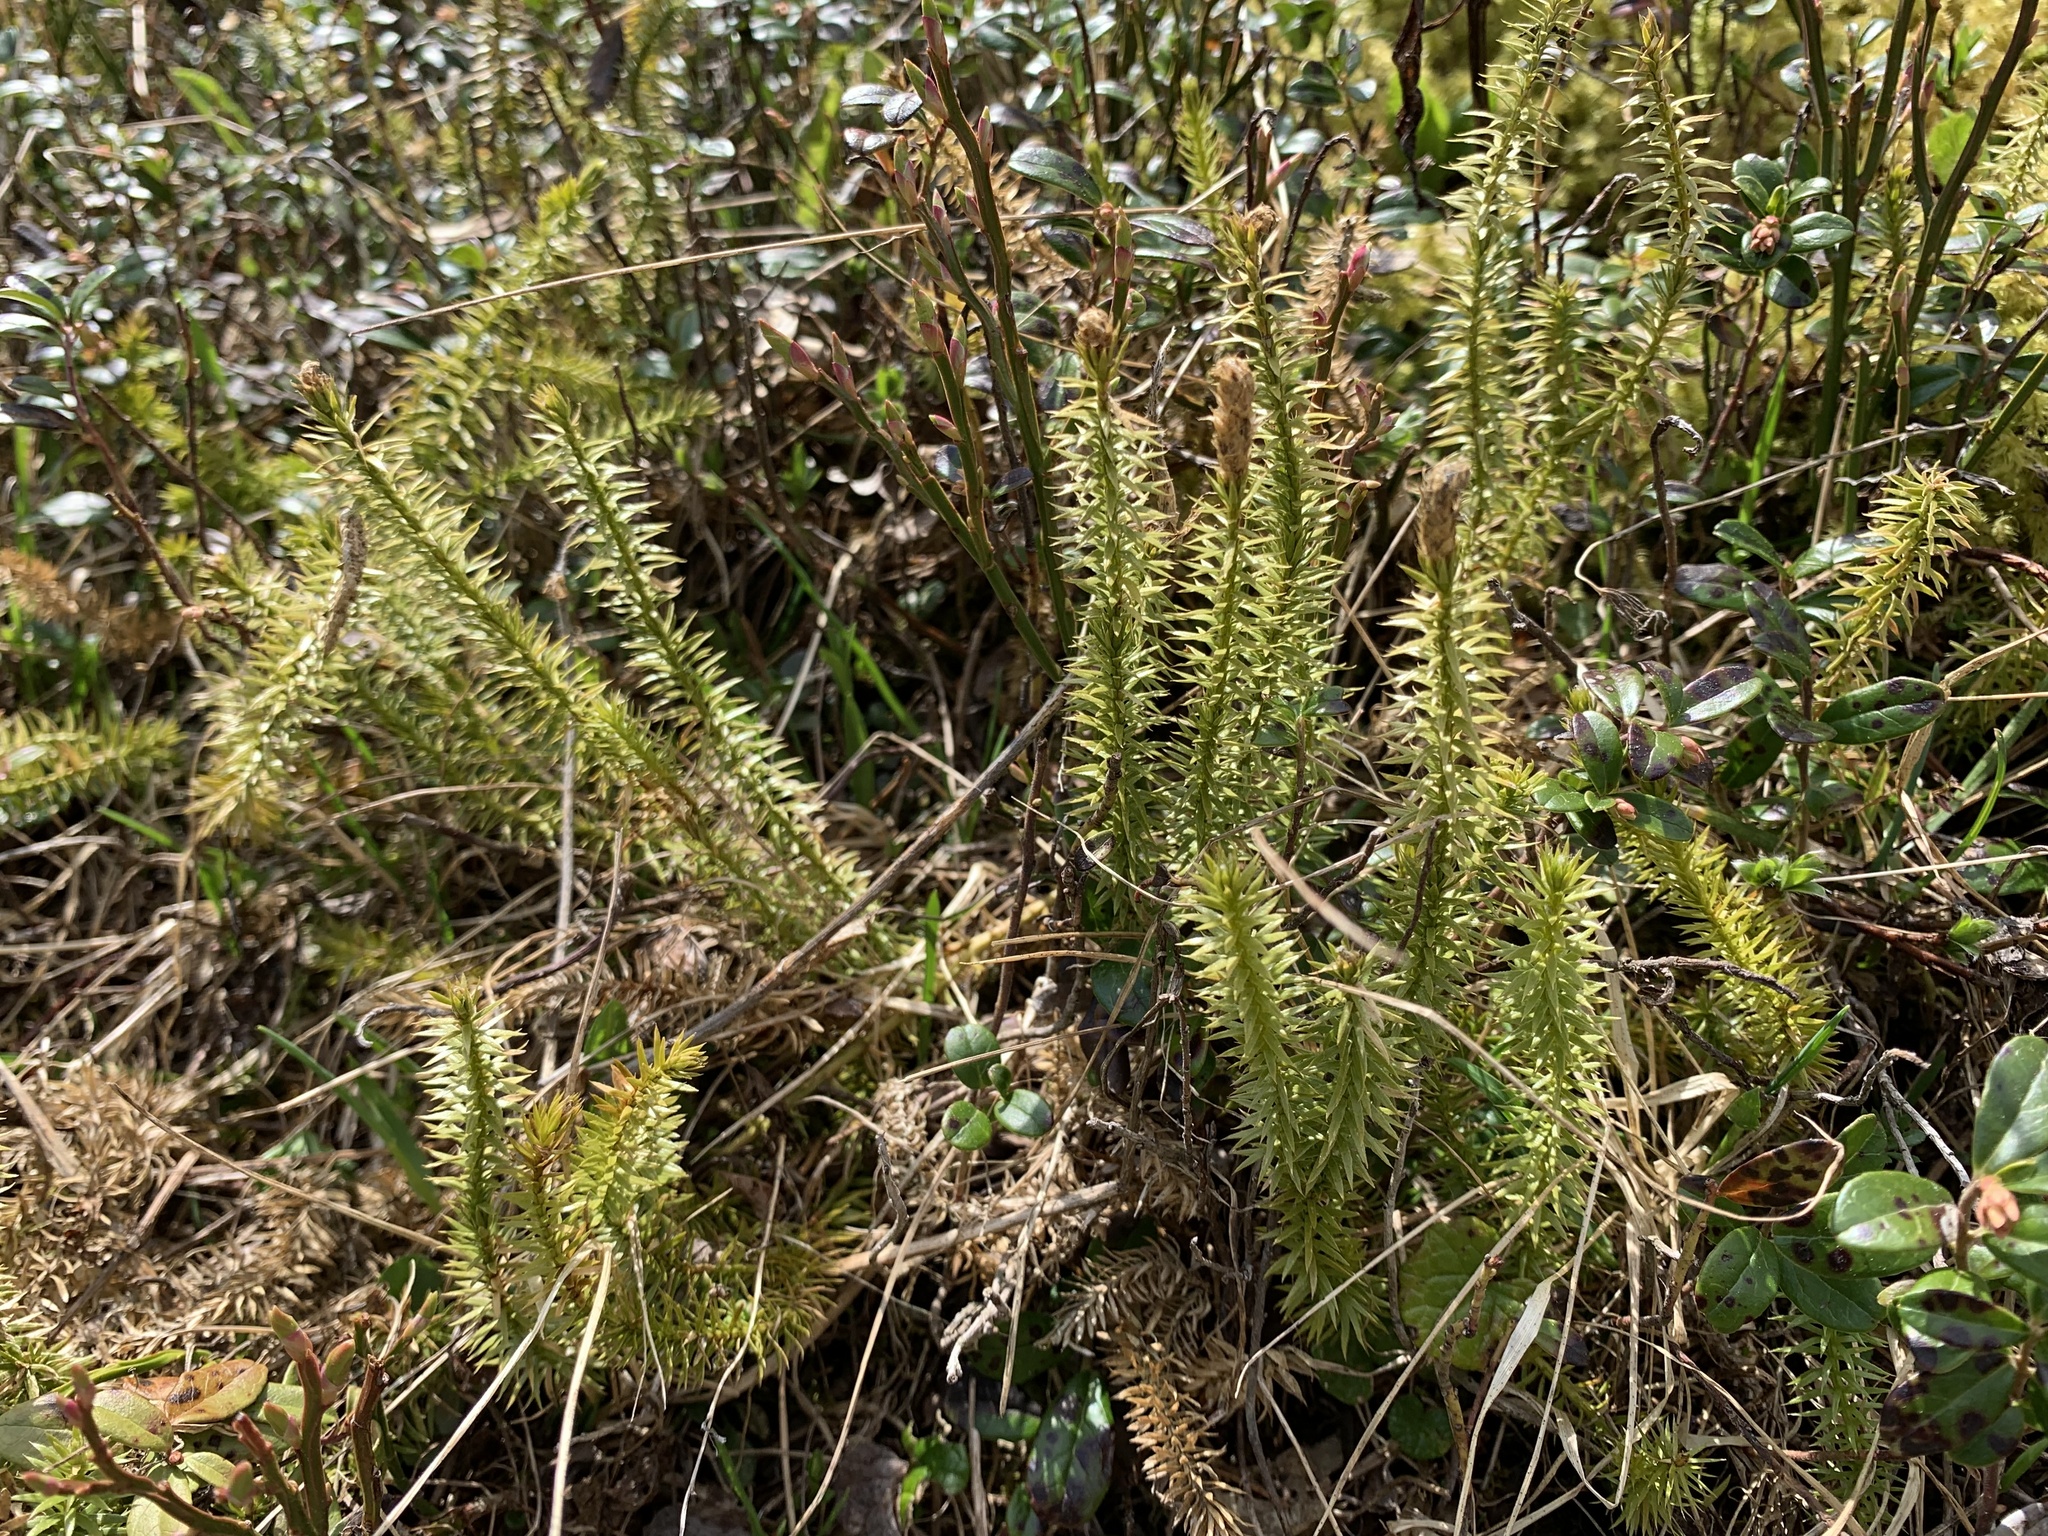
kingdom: Plantae
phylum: Tracheophyta
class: Lycopodiopsida
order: Lycopodiales
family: Lycopodiaceae
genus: Spinulum
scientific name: Spinulum annotinum
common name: Interrupted club-moss
